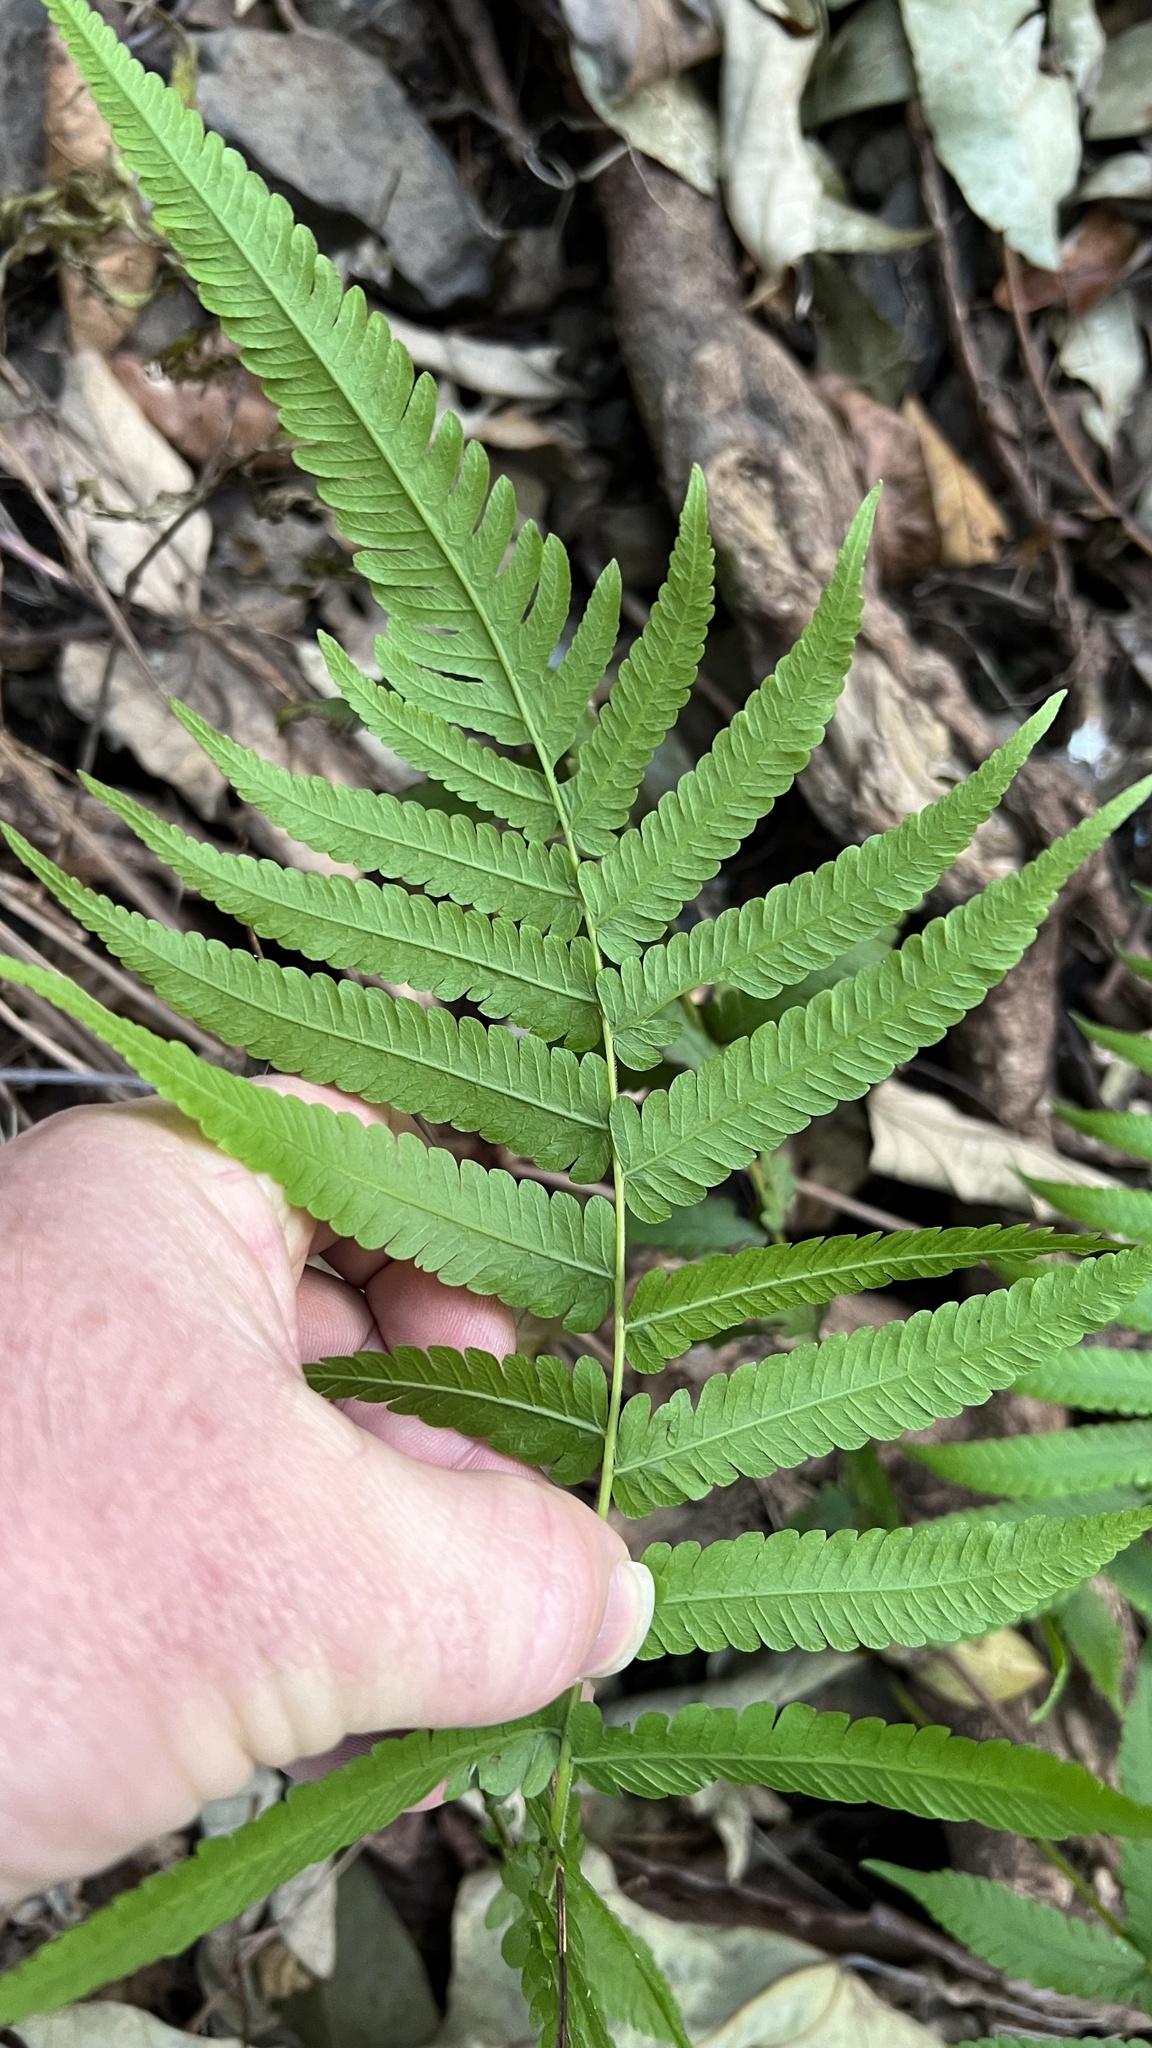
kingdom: Plantae
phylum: Tracheophyta
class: Polypodiopsida
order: Polypodiales
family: Thelypteridaceae
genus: Christella
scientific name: Christella dentata
